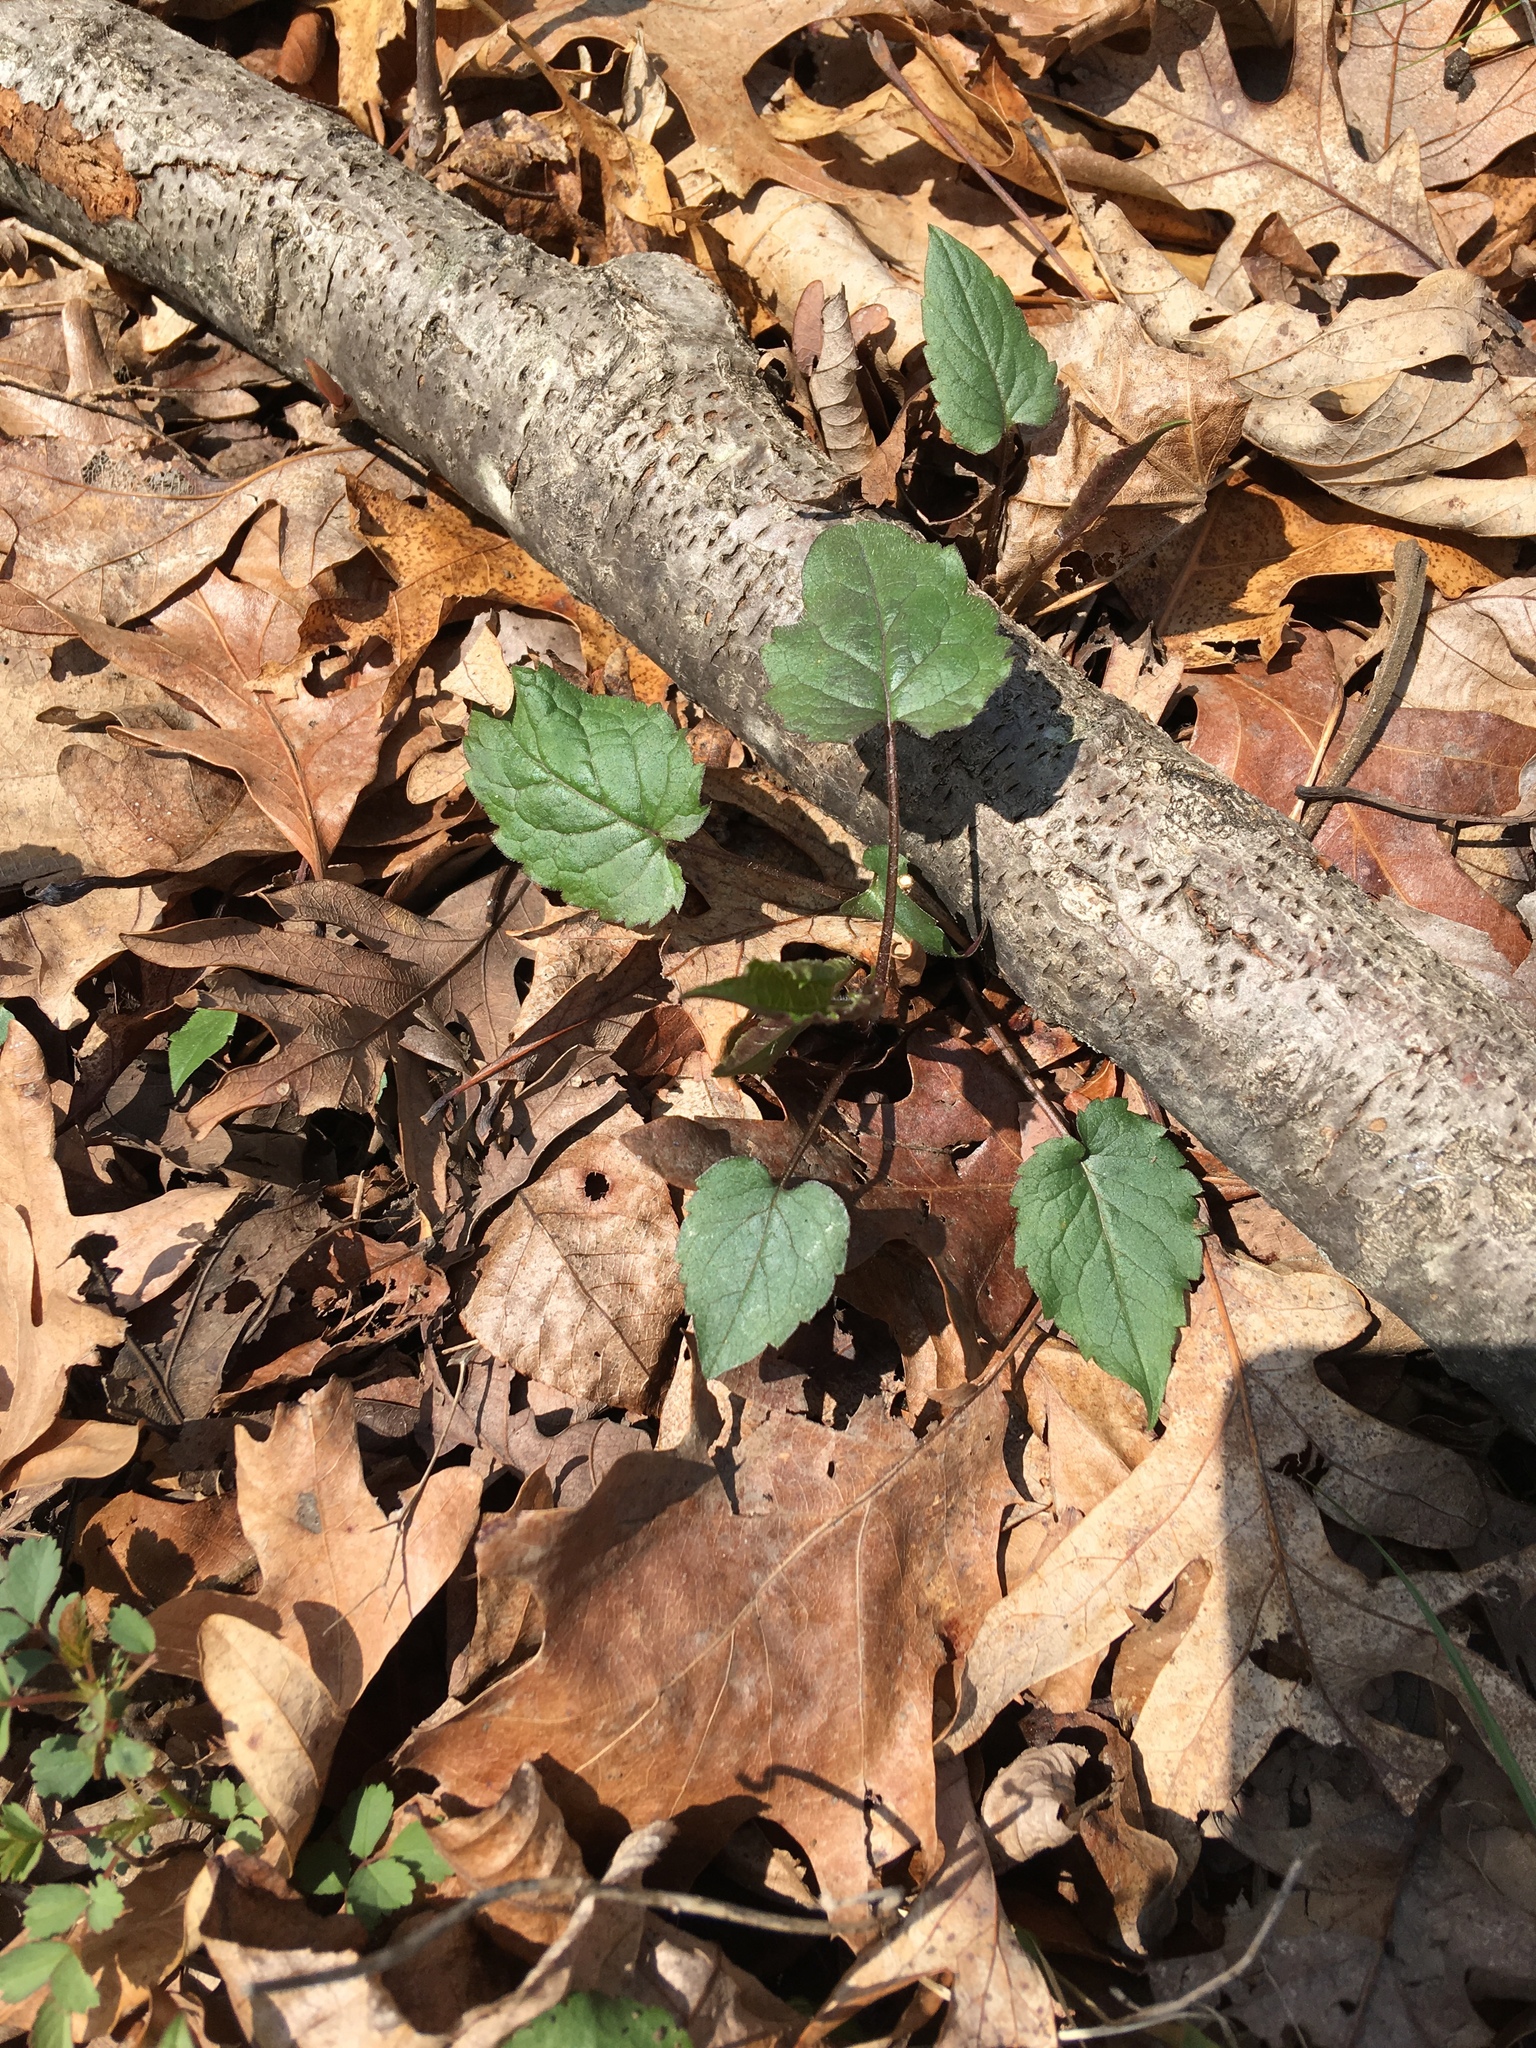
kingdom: Plantae
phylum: Tracheophyta
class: Magnoliopsida
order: Asterales
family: Asteraceae
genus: Eurybia
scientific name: Eurybia divaricata
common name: White wood aster
